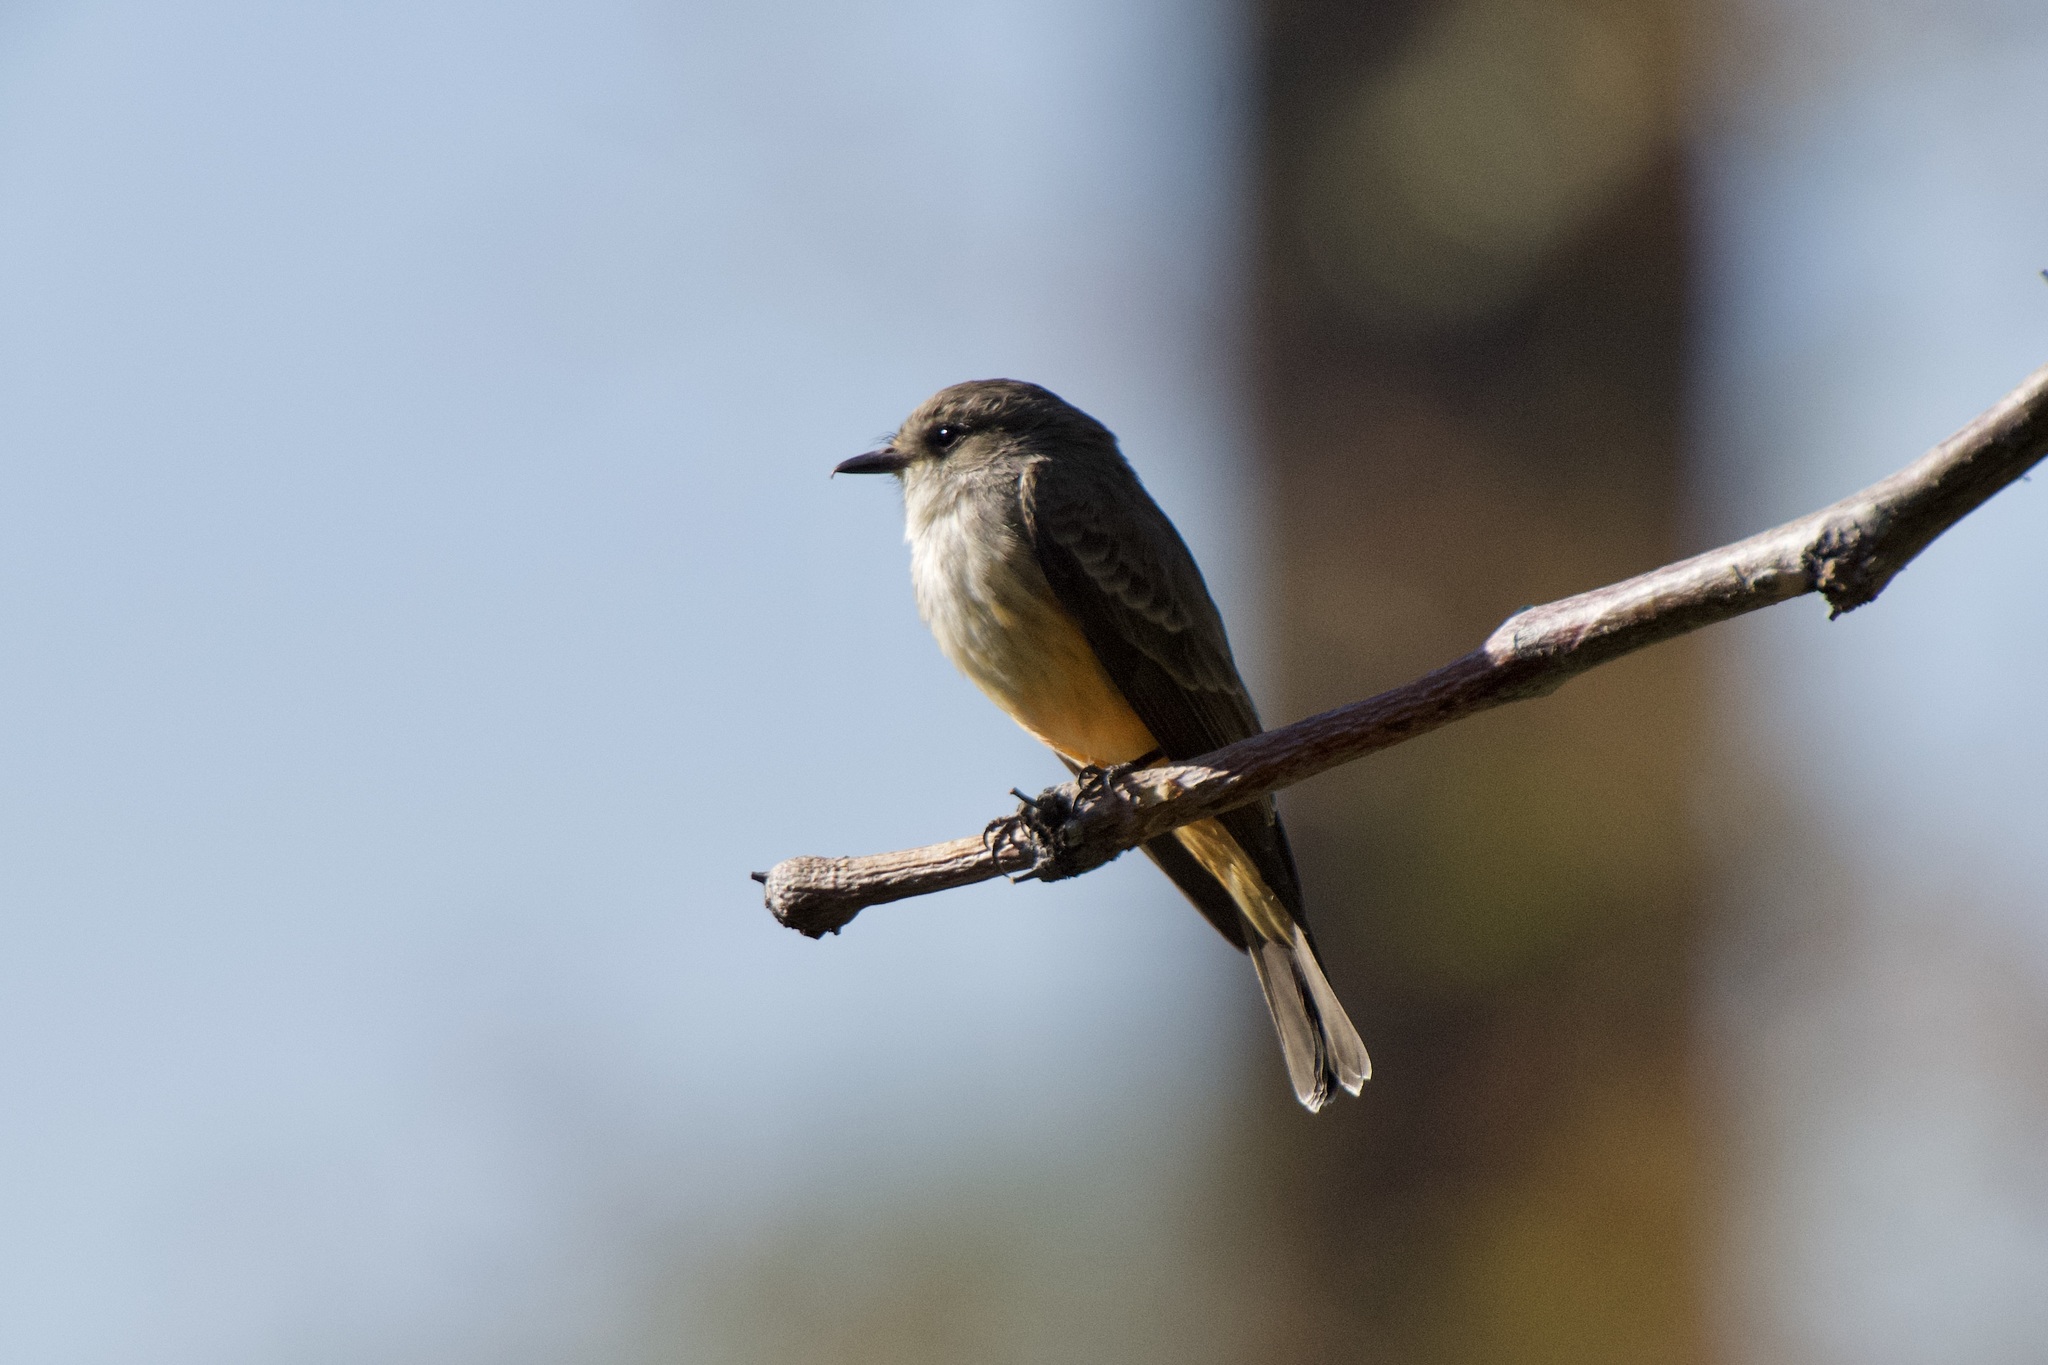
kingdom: Animalia
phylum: Chordata
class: Aves
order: Passeriformes
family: Tyrannidae
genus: Pyrocephalus
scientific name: Pyrocephalus rubinus
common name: Vermilion flycatcher
